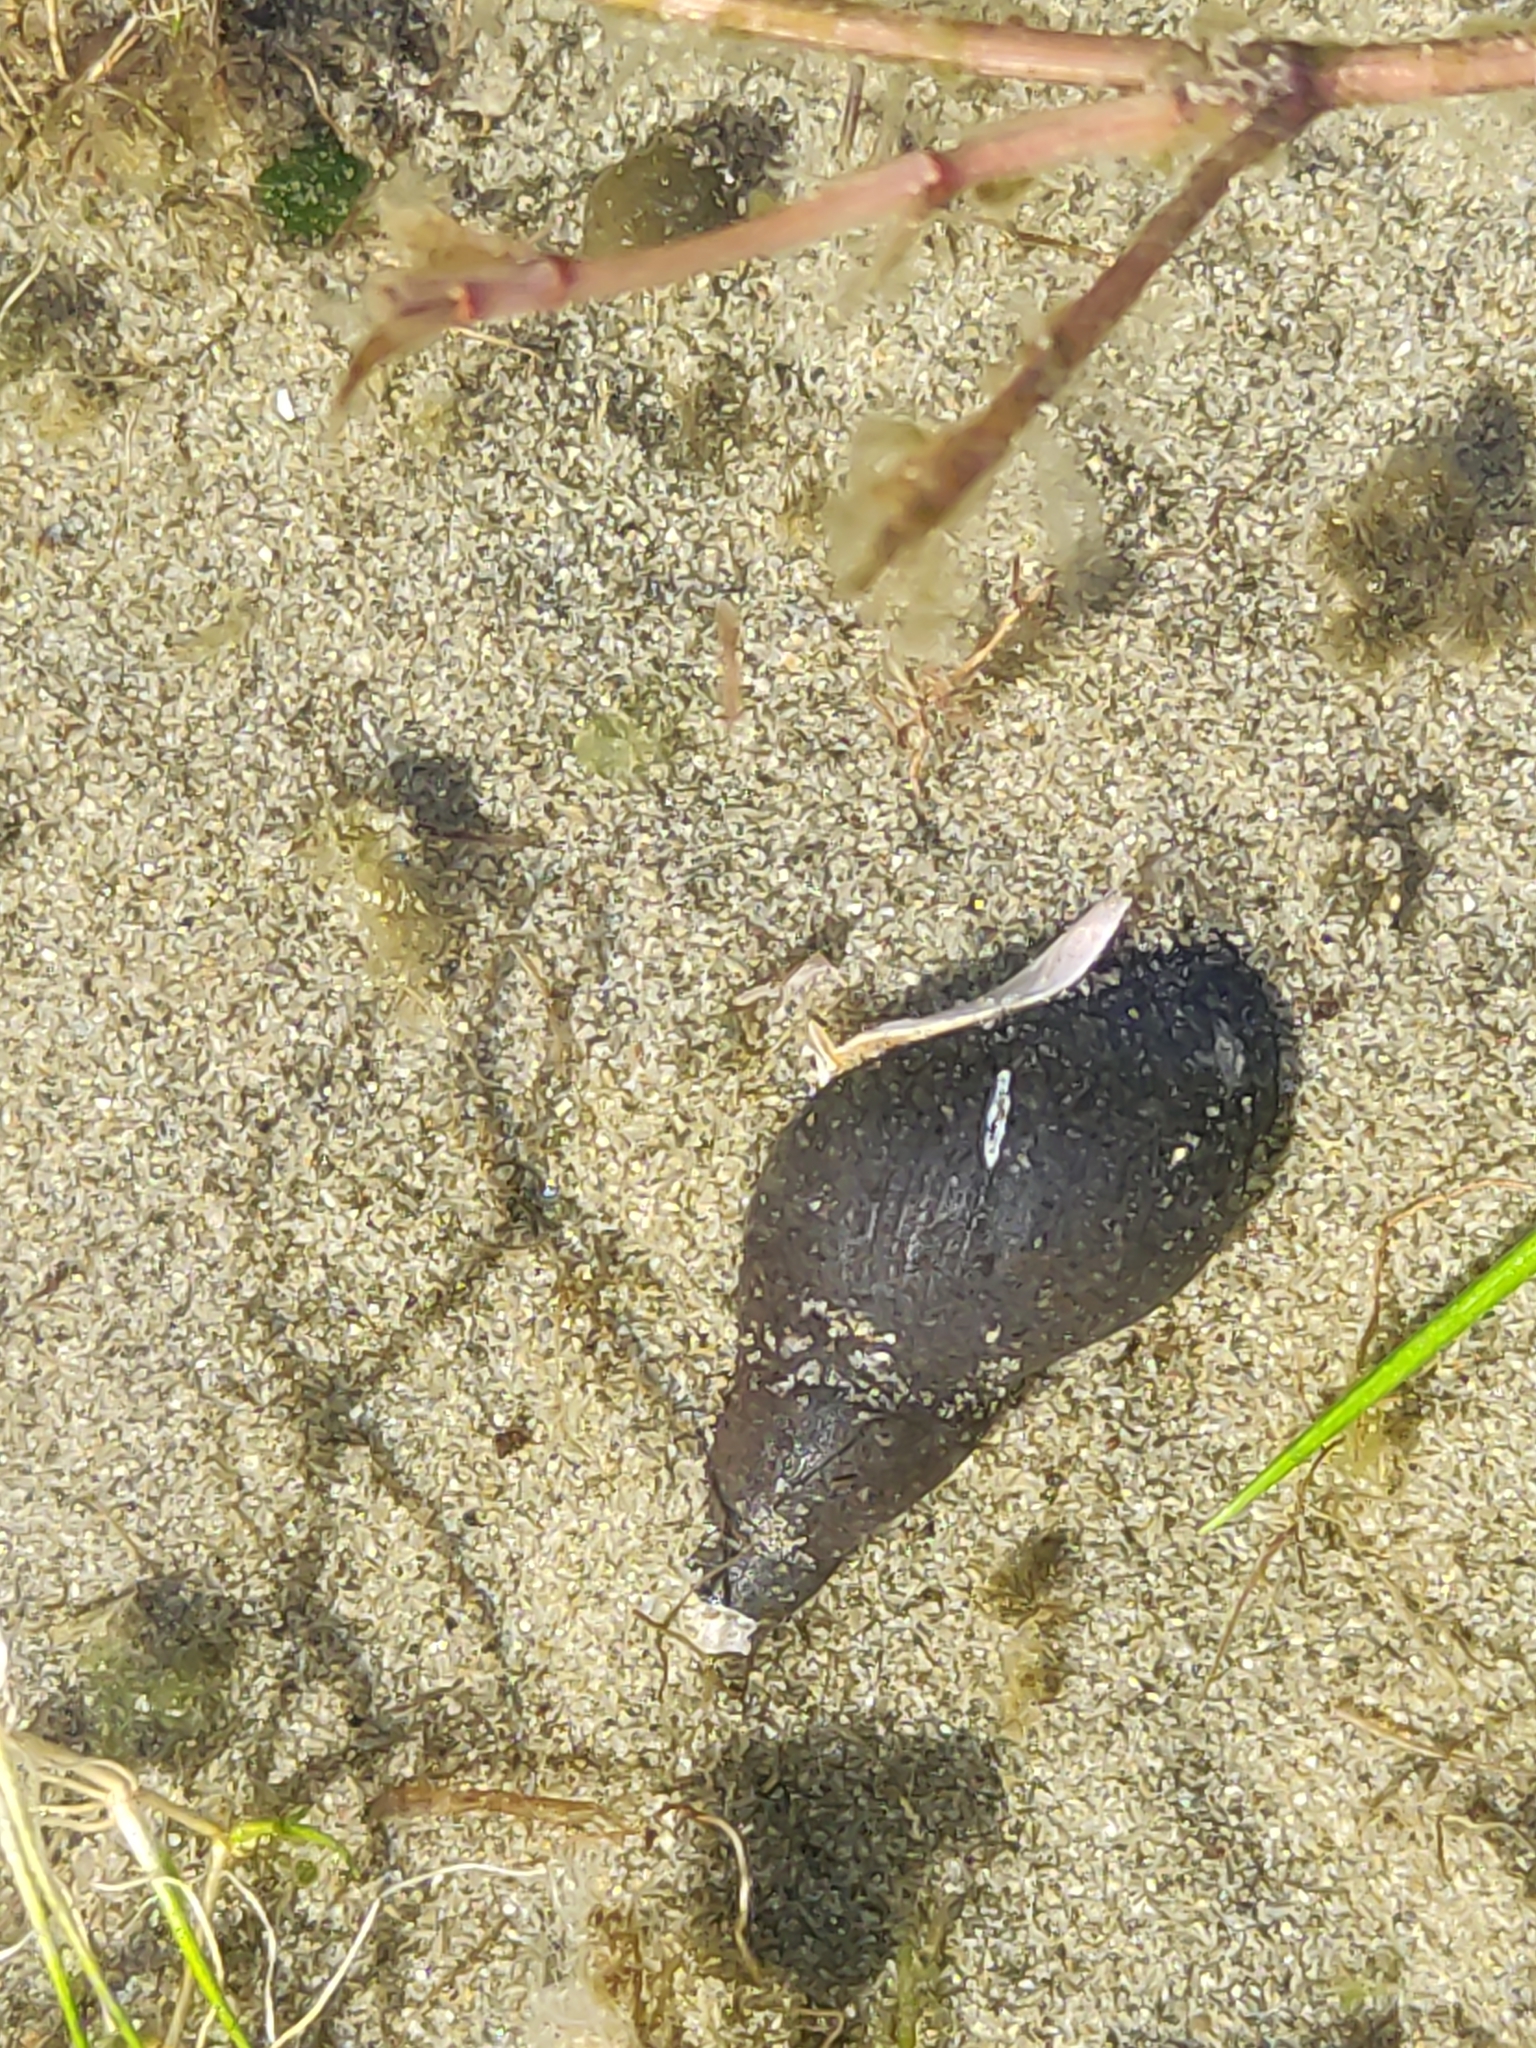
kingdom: Animalia
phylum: Mollusca
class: Gastropoda
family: Lymnaeidae
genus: Lymnaea
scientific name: Lymnaea stagnalis
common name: Great pond snail
